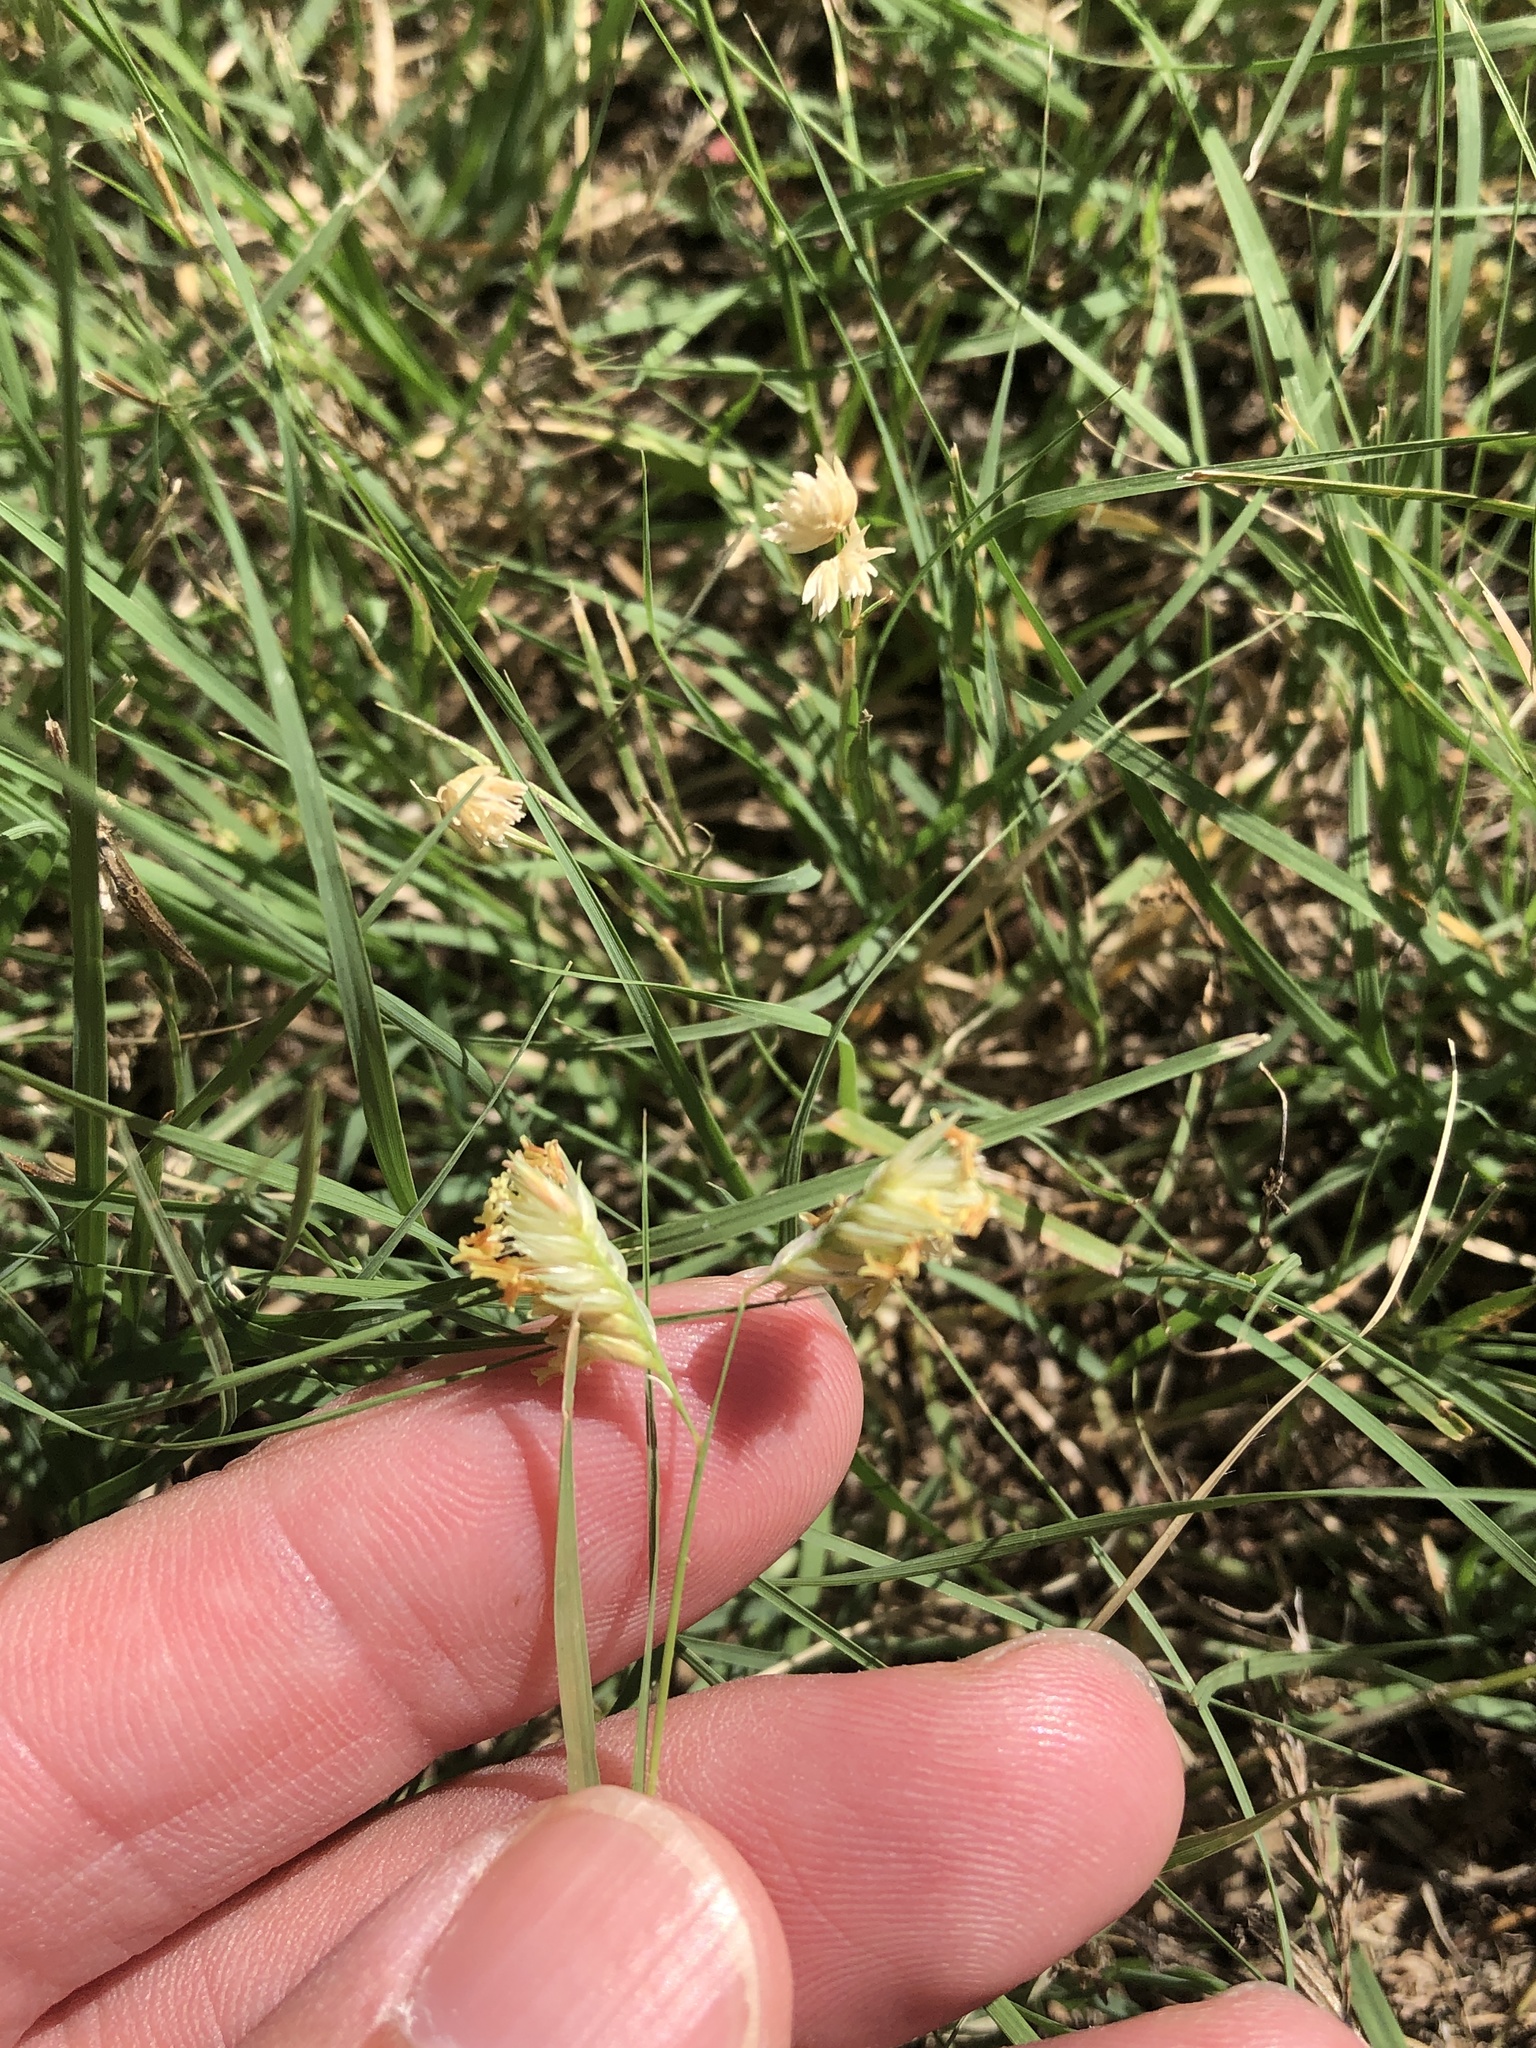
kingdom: Plantae
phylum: Tracheophyta
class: Liliopsida
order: Poales
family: Poaceae
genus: Bouteloua
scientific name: Bouteloua dactyloides
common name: Buffalo grass
